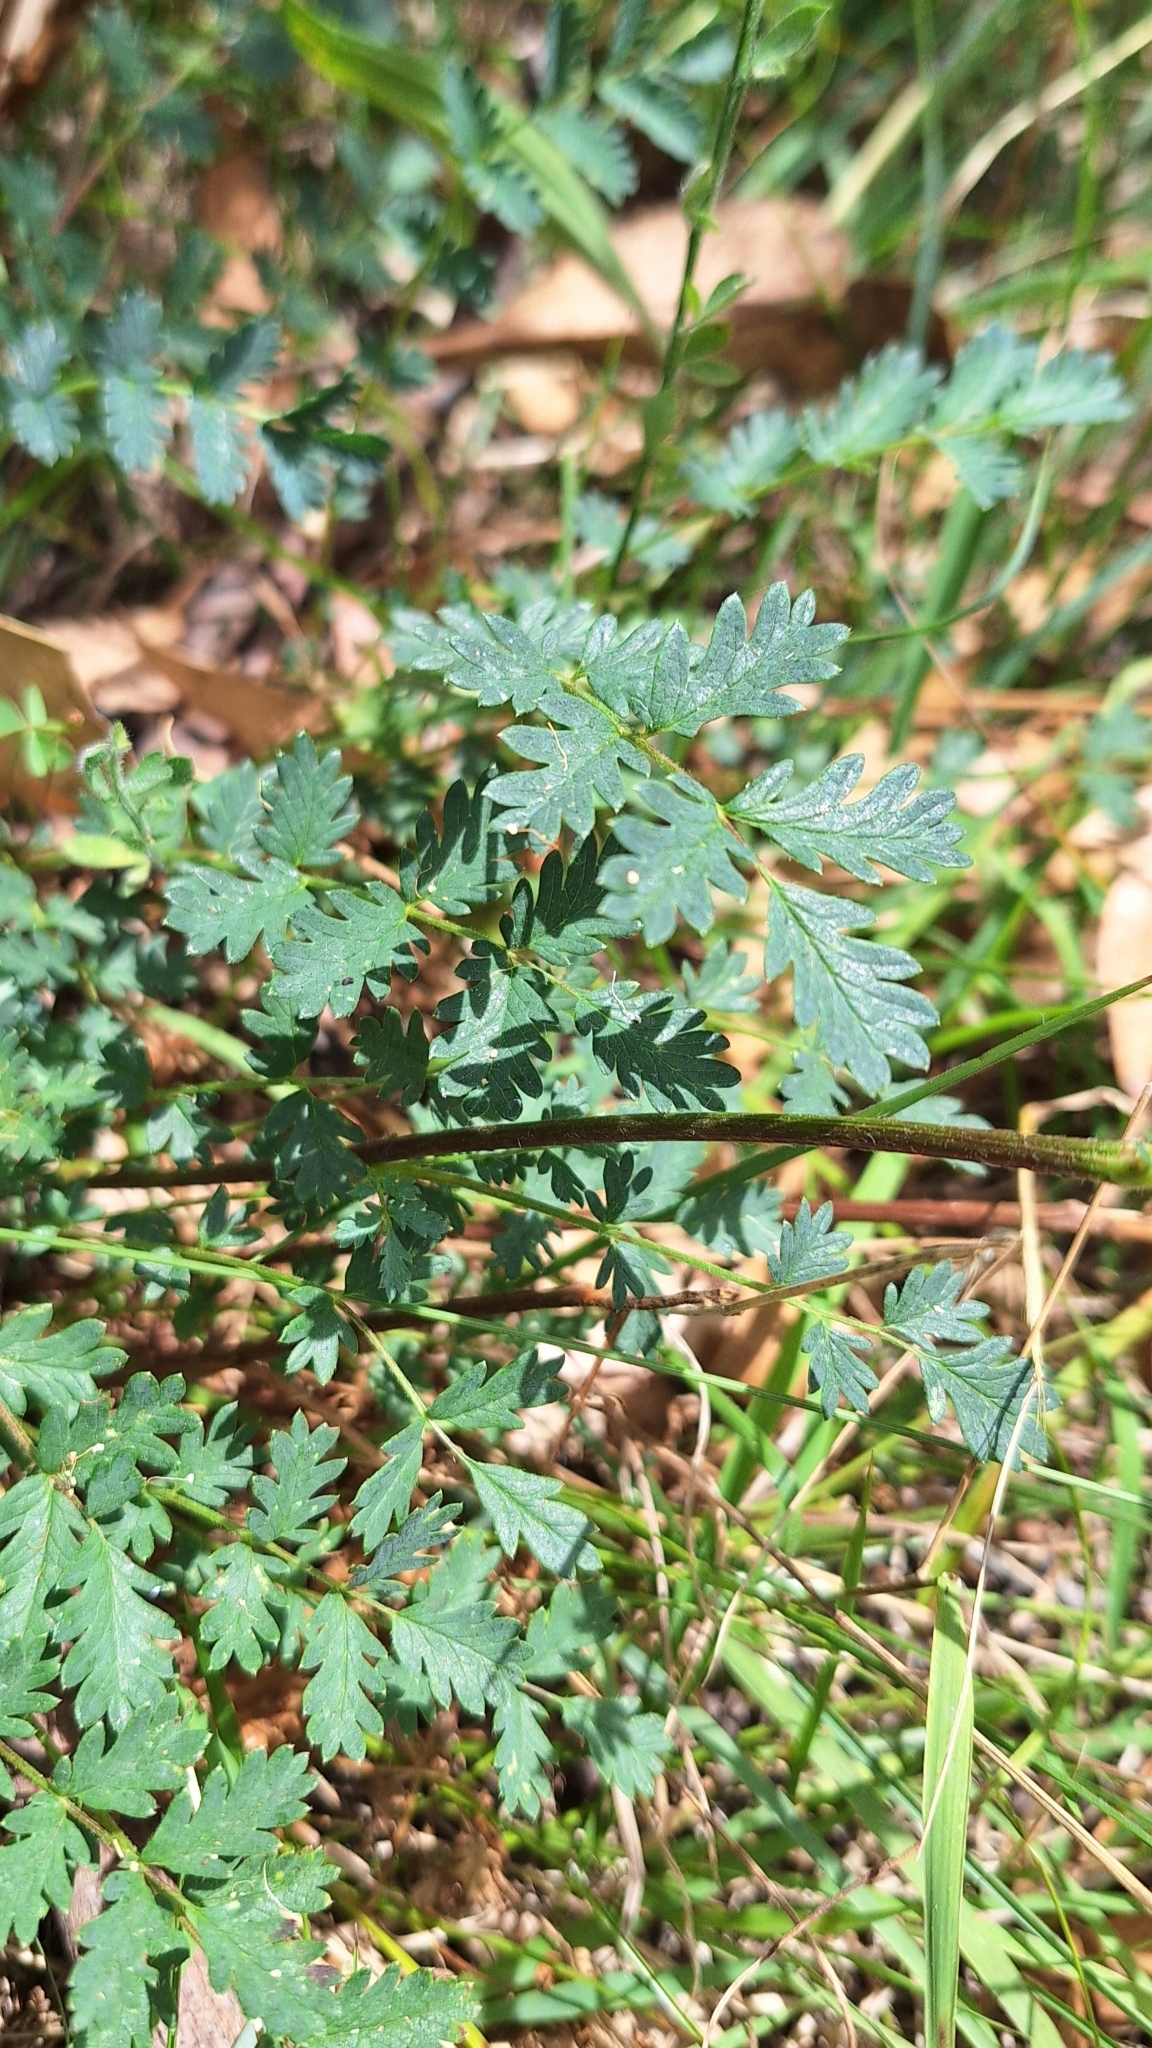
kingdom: Plantae
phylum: Tracheophyta
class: Magnoliopsida
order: Rosales
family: Rosaceae
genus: Acaena
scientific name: Acaena echinata
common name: Sheepbur
